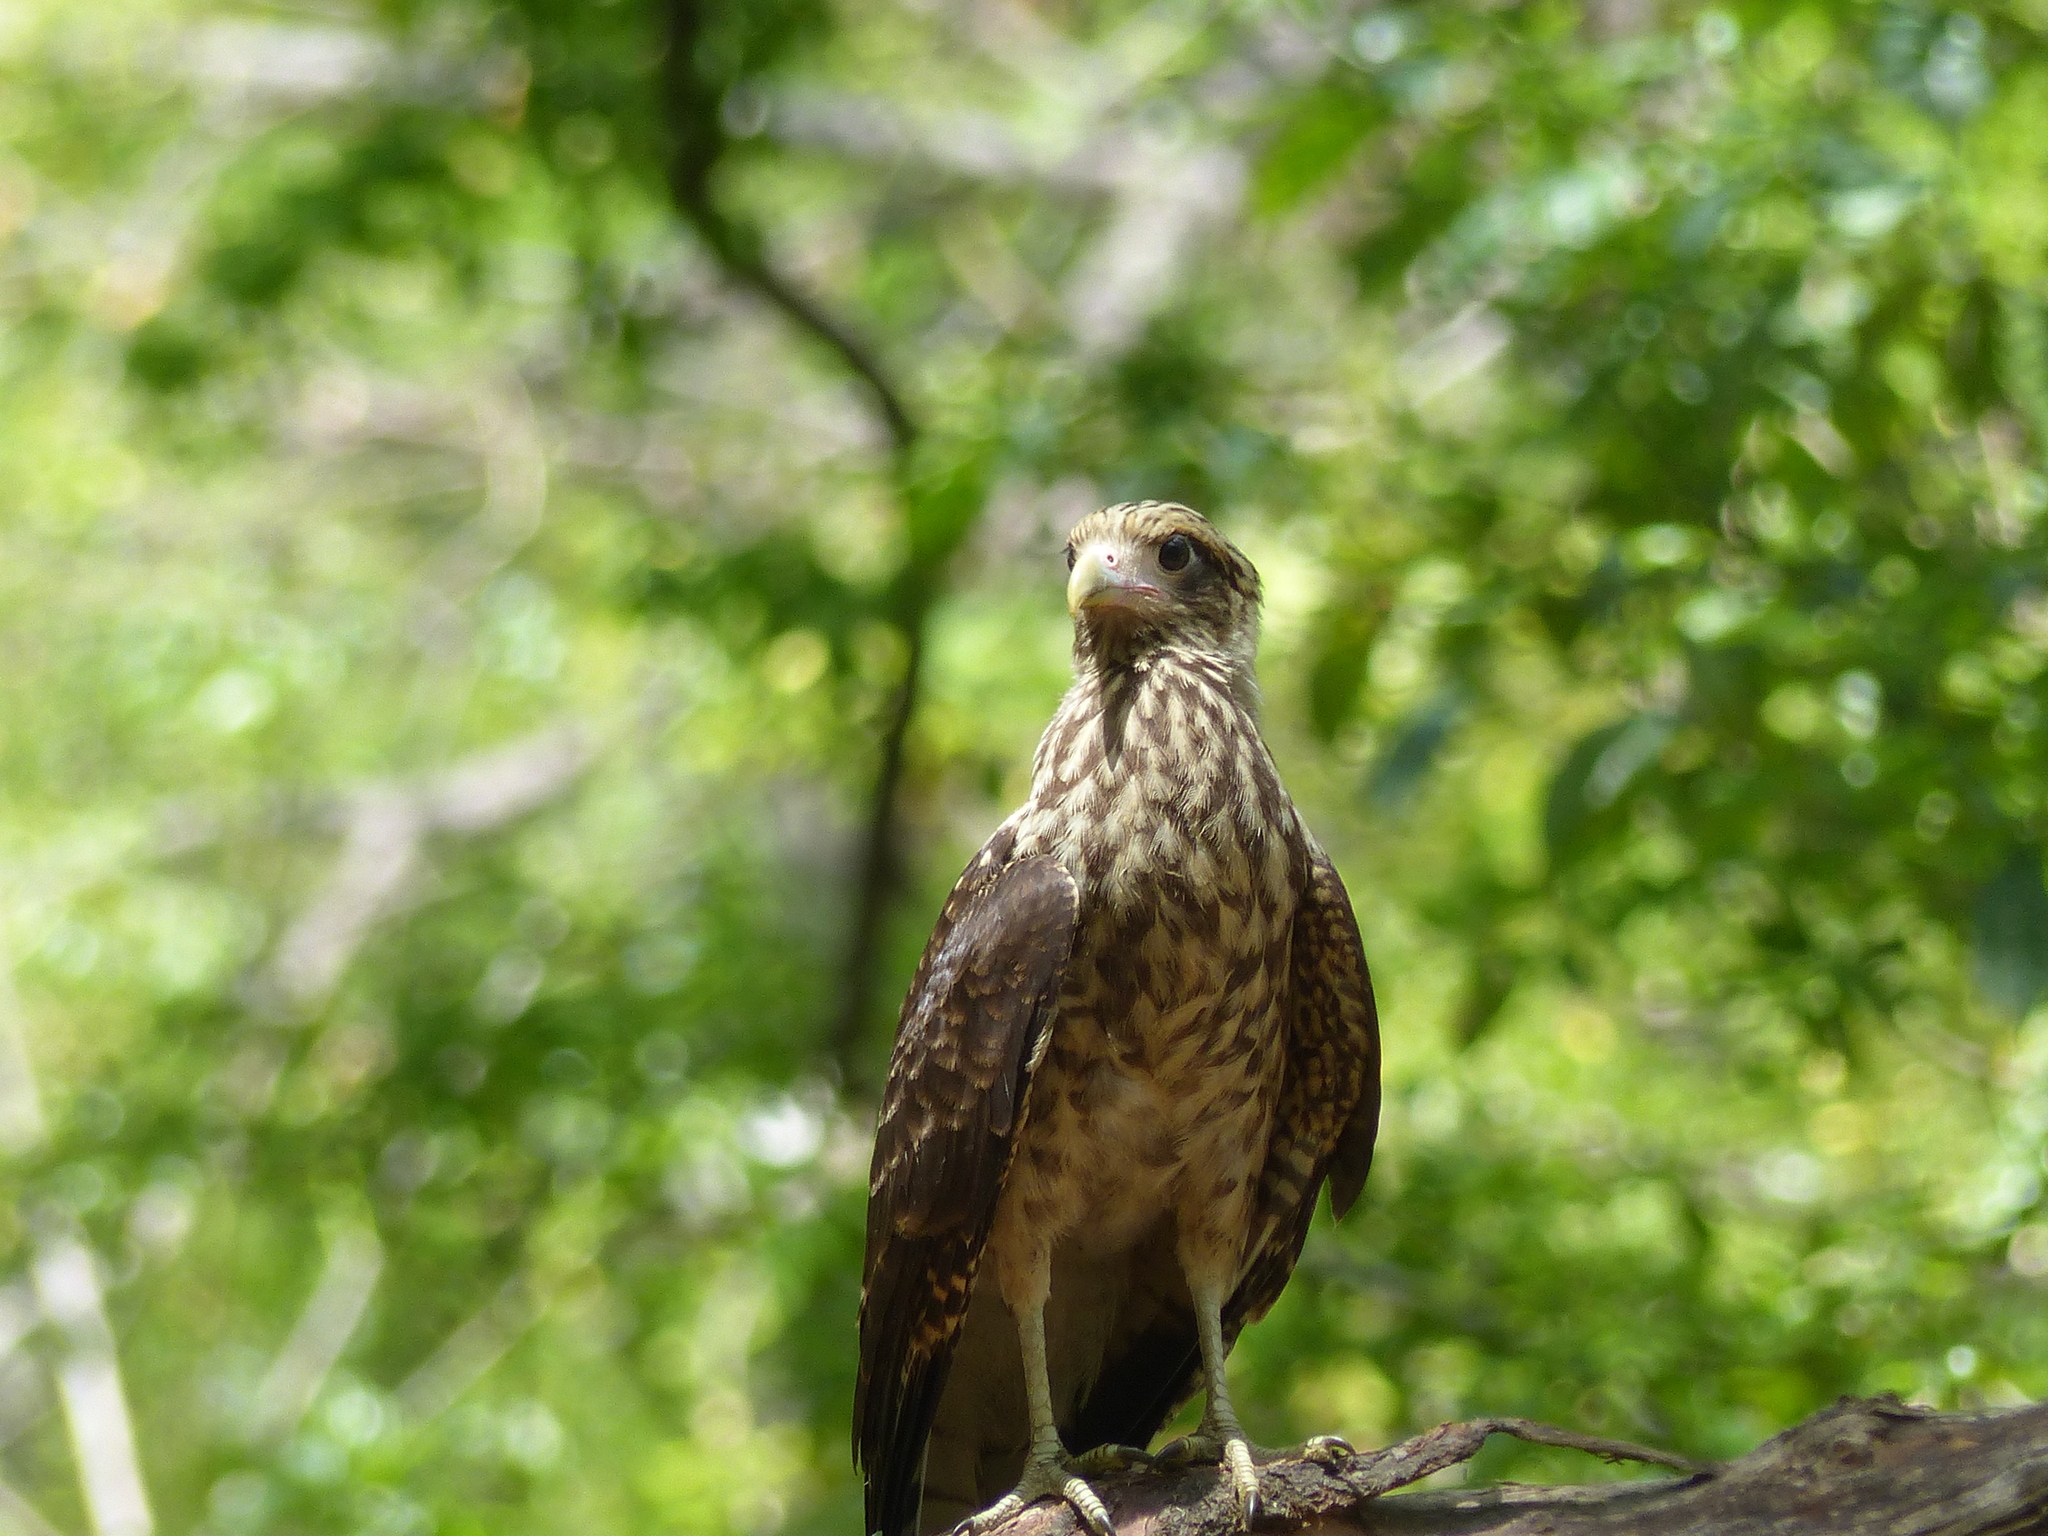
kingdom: Animalia
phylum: Chordata
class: Aves
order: Falconiformes
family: Falconidae
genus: Daptrius
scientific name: Daptrius
